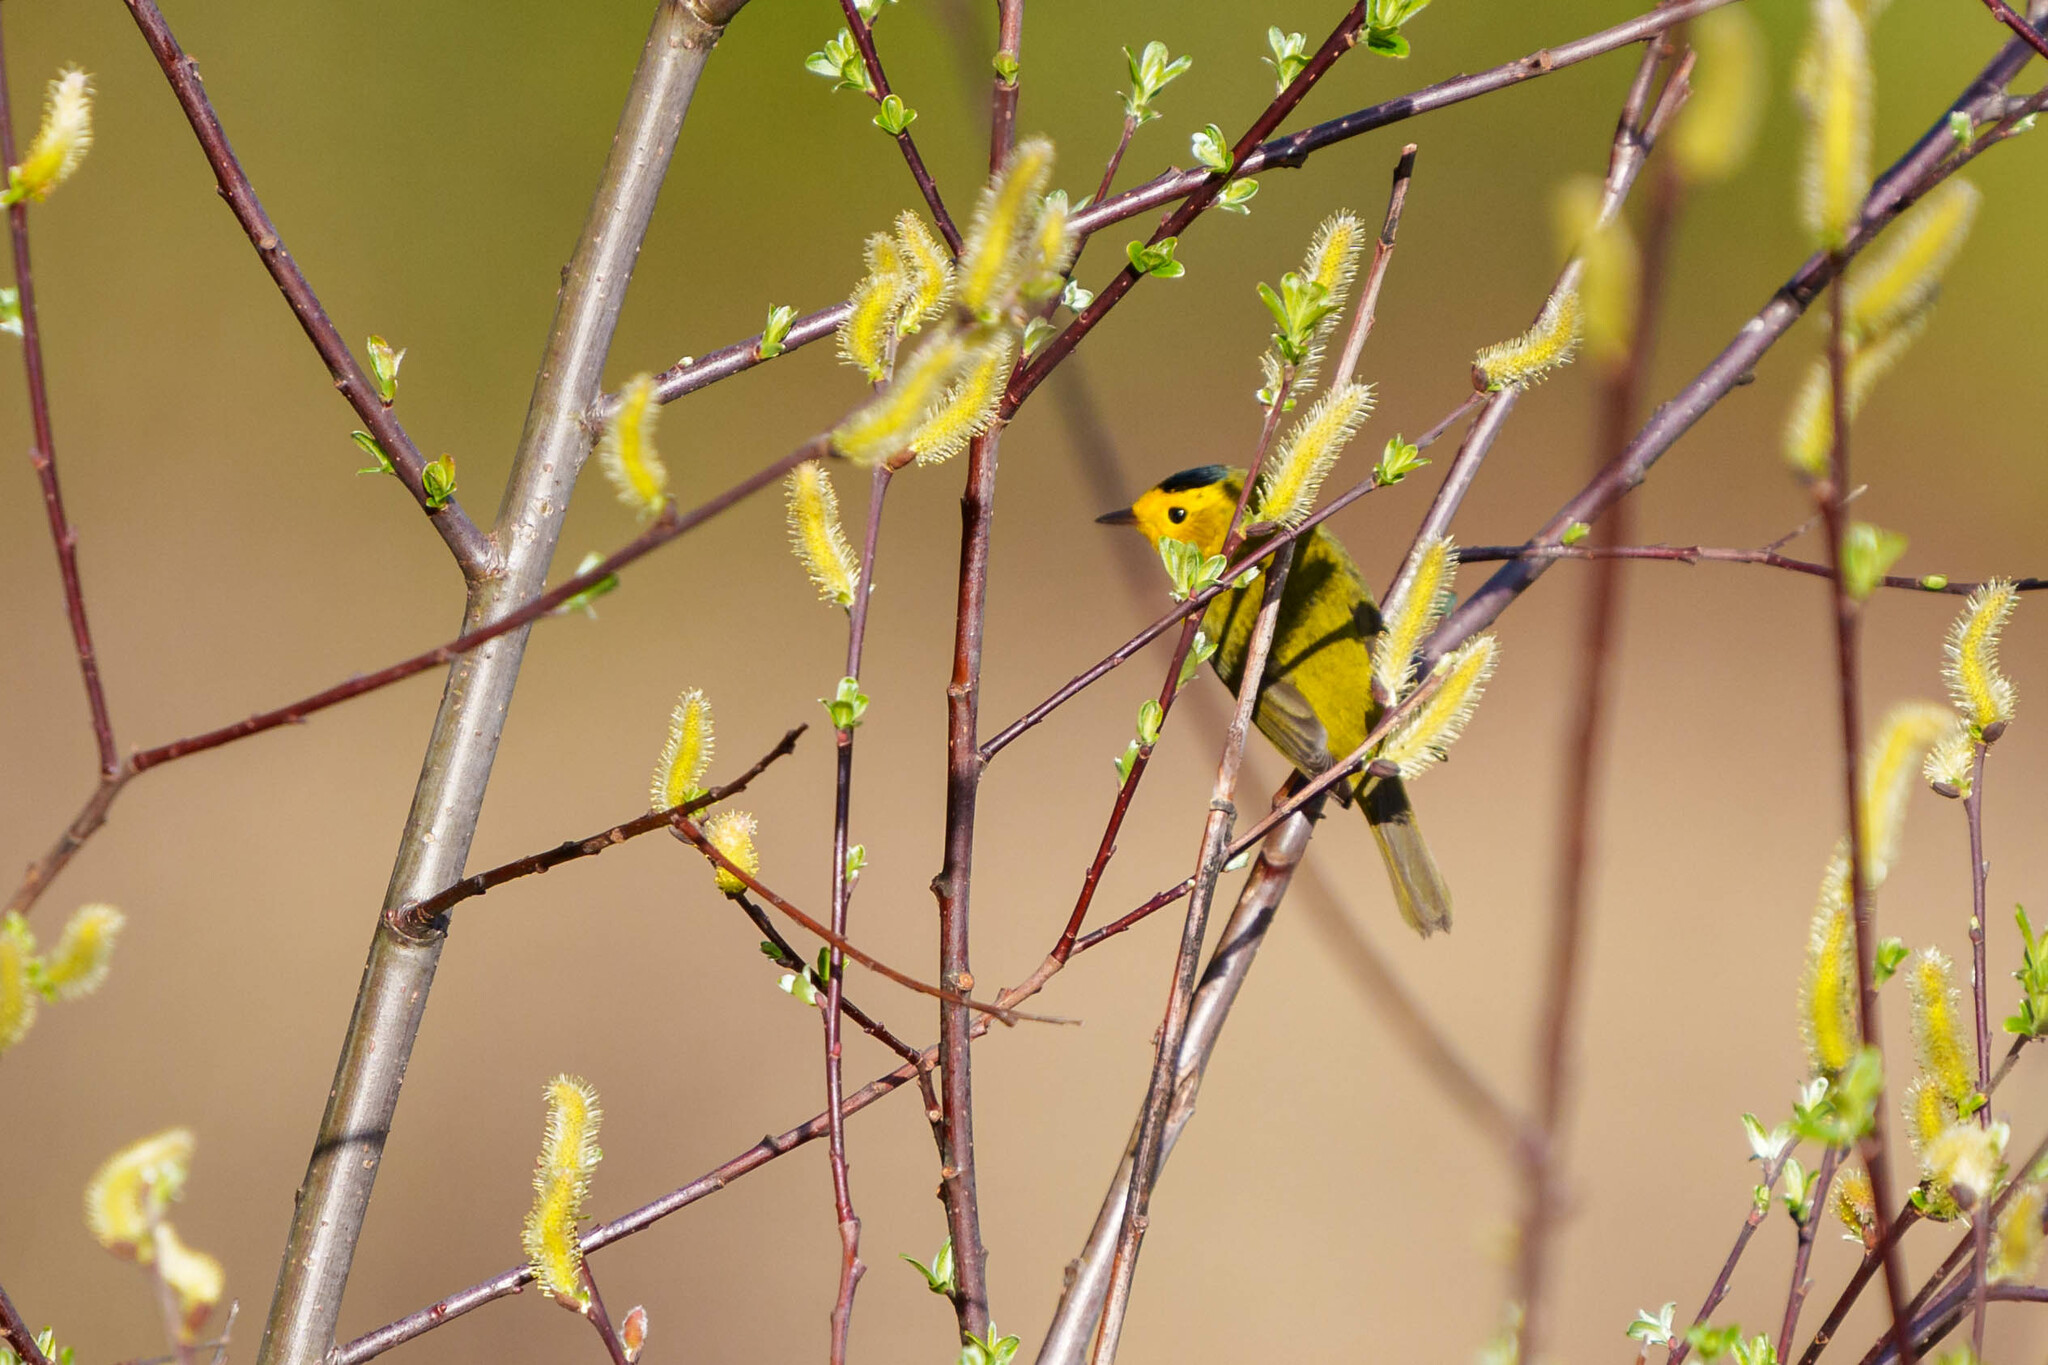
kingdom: Animalia
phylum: Chordata
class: Aves
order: Passeriformes
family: Parulidae
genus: Cardellina
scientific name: Cardellina pusilla
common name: Wilson's warbler
